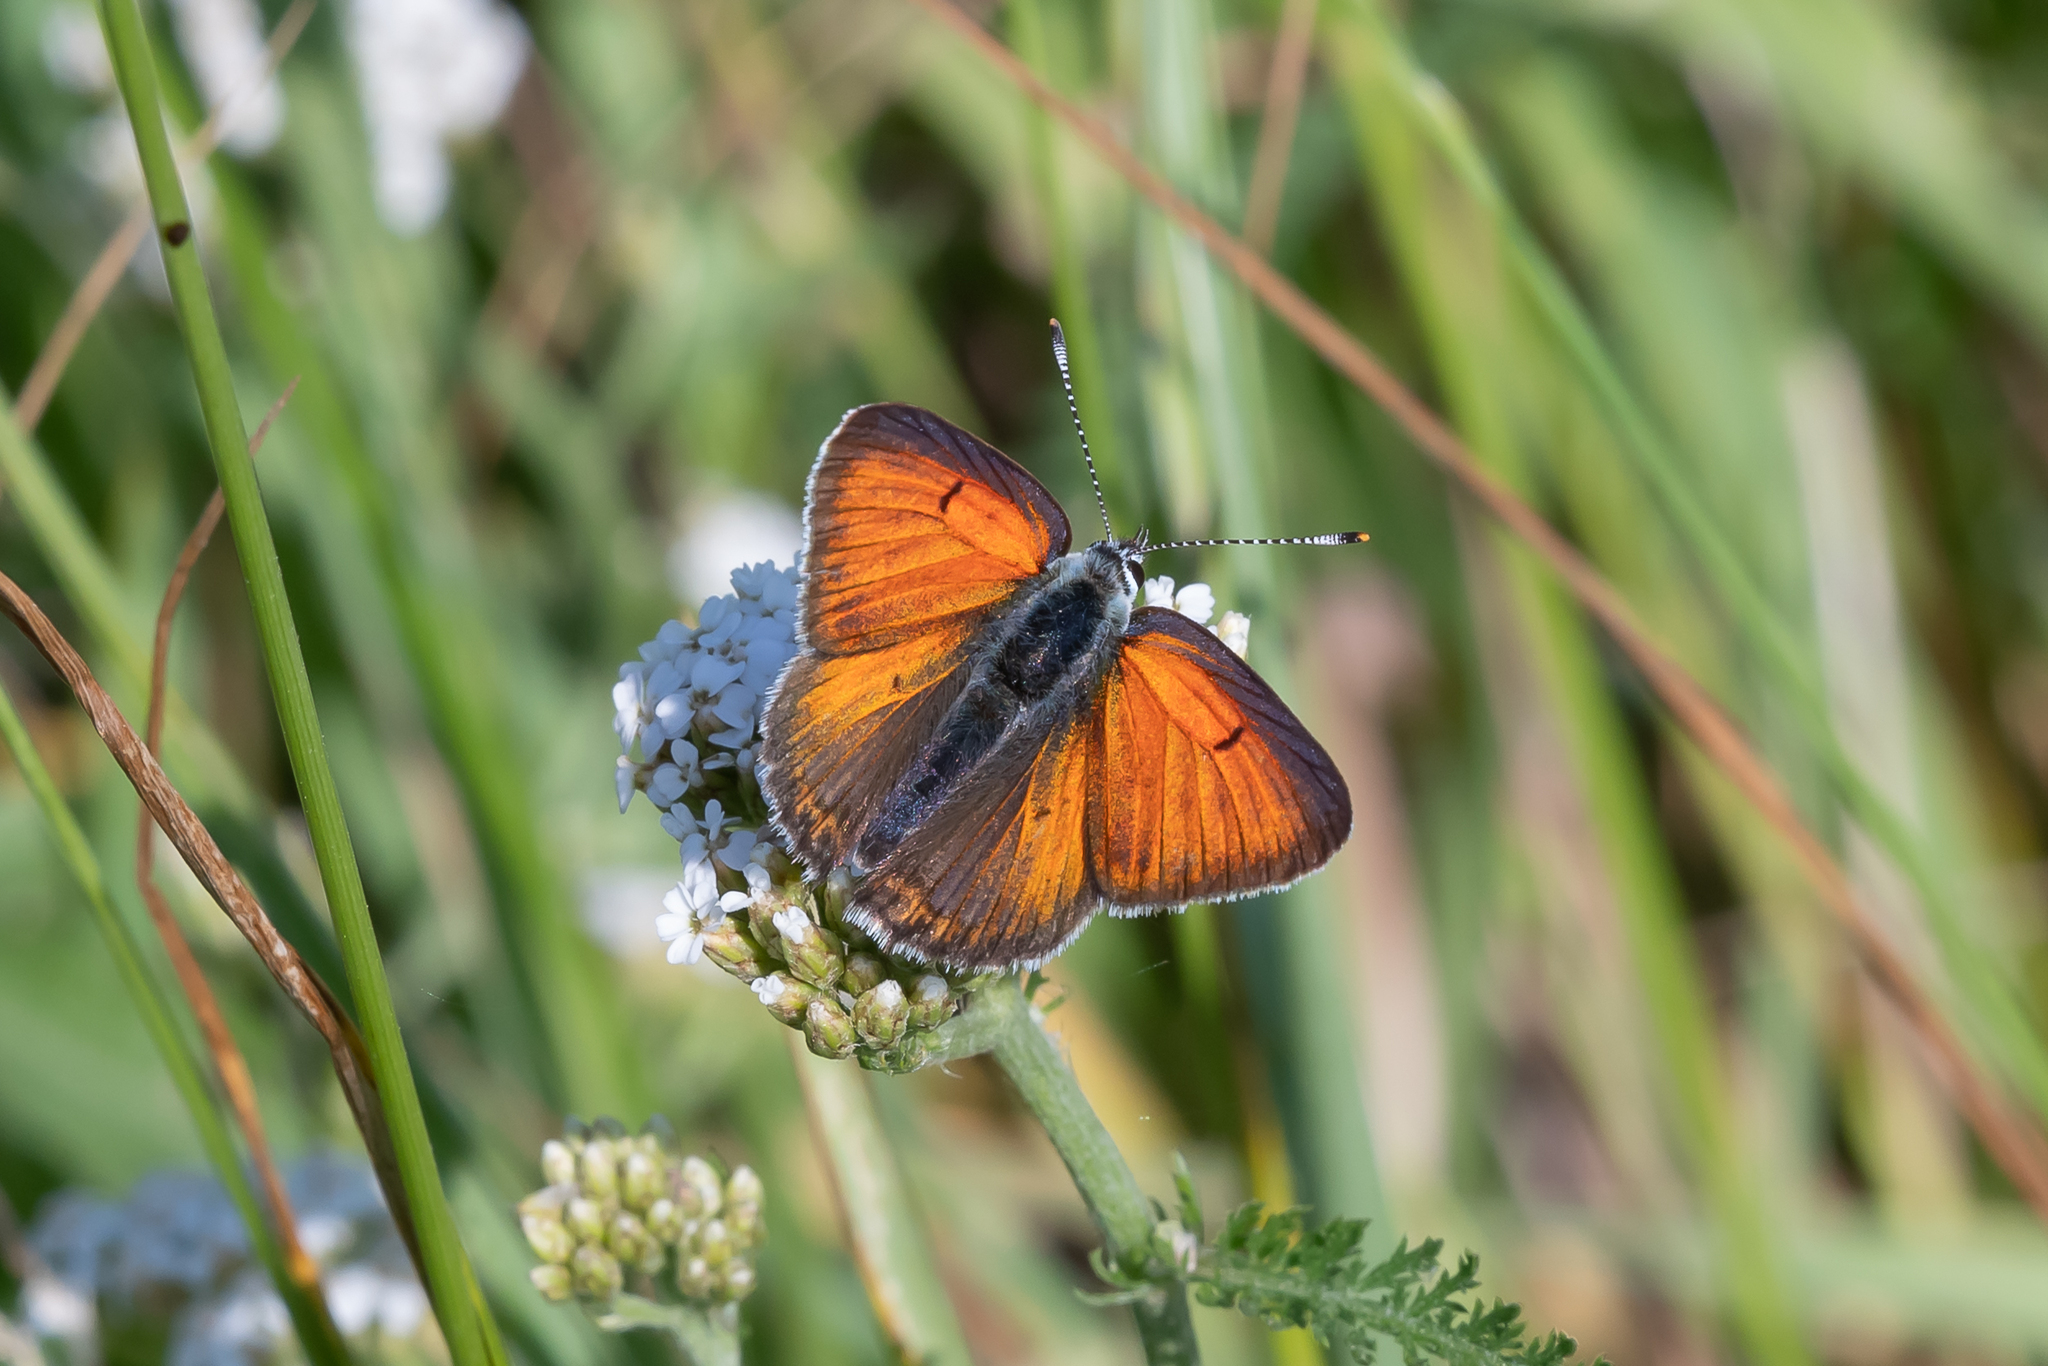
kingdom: Animalia
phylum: Arthropoda
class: Insecta
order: Lepidoptera
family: Lycaenidae
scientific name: Lycaenidae
